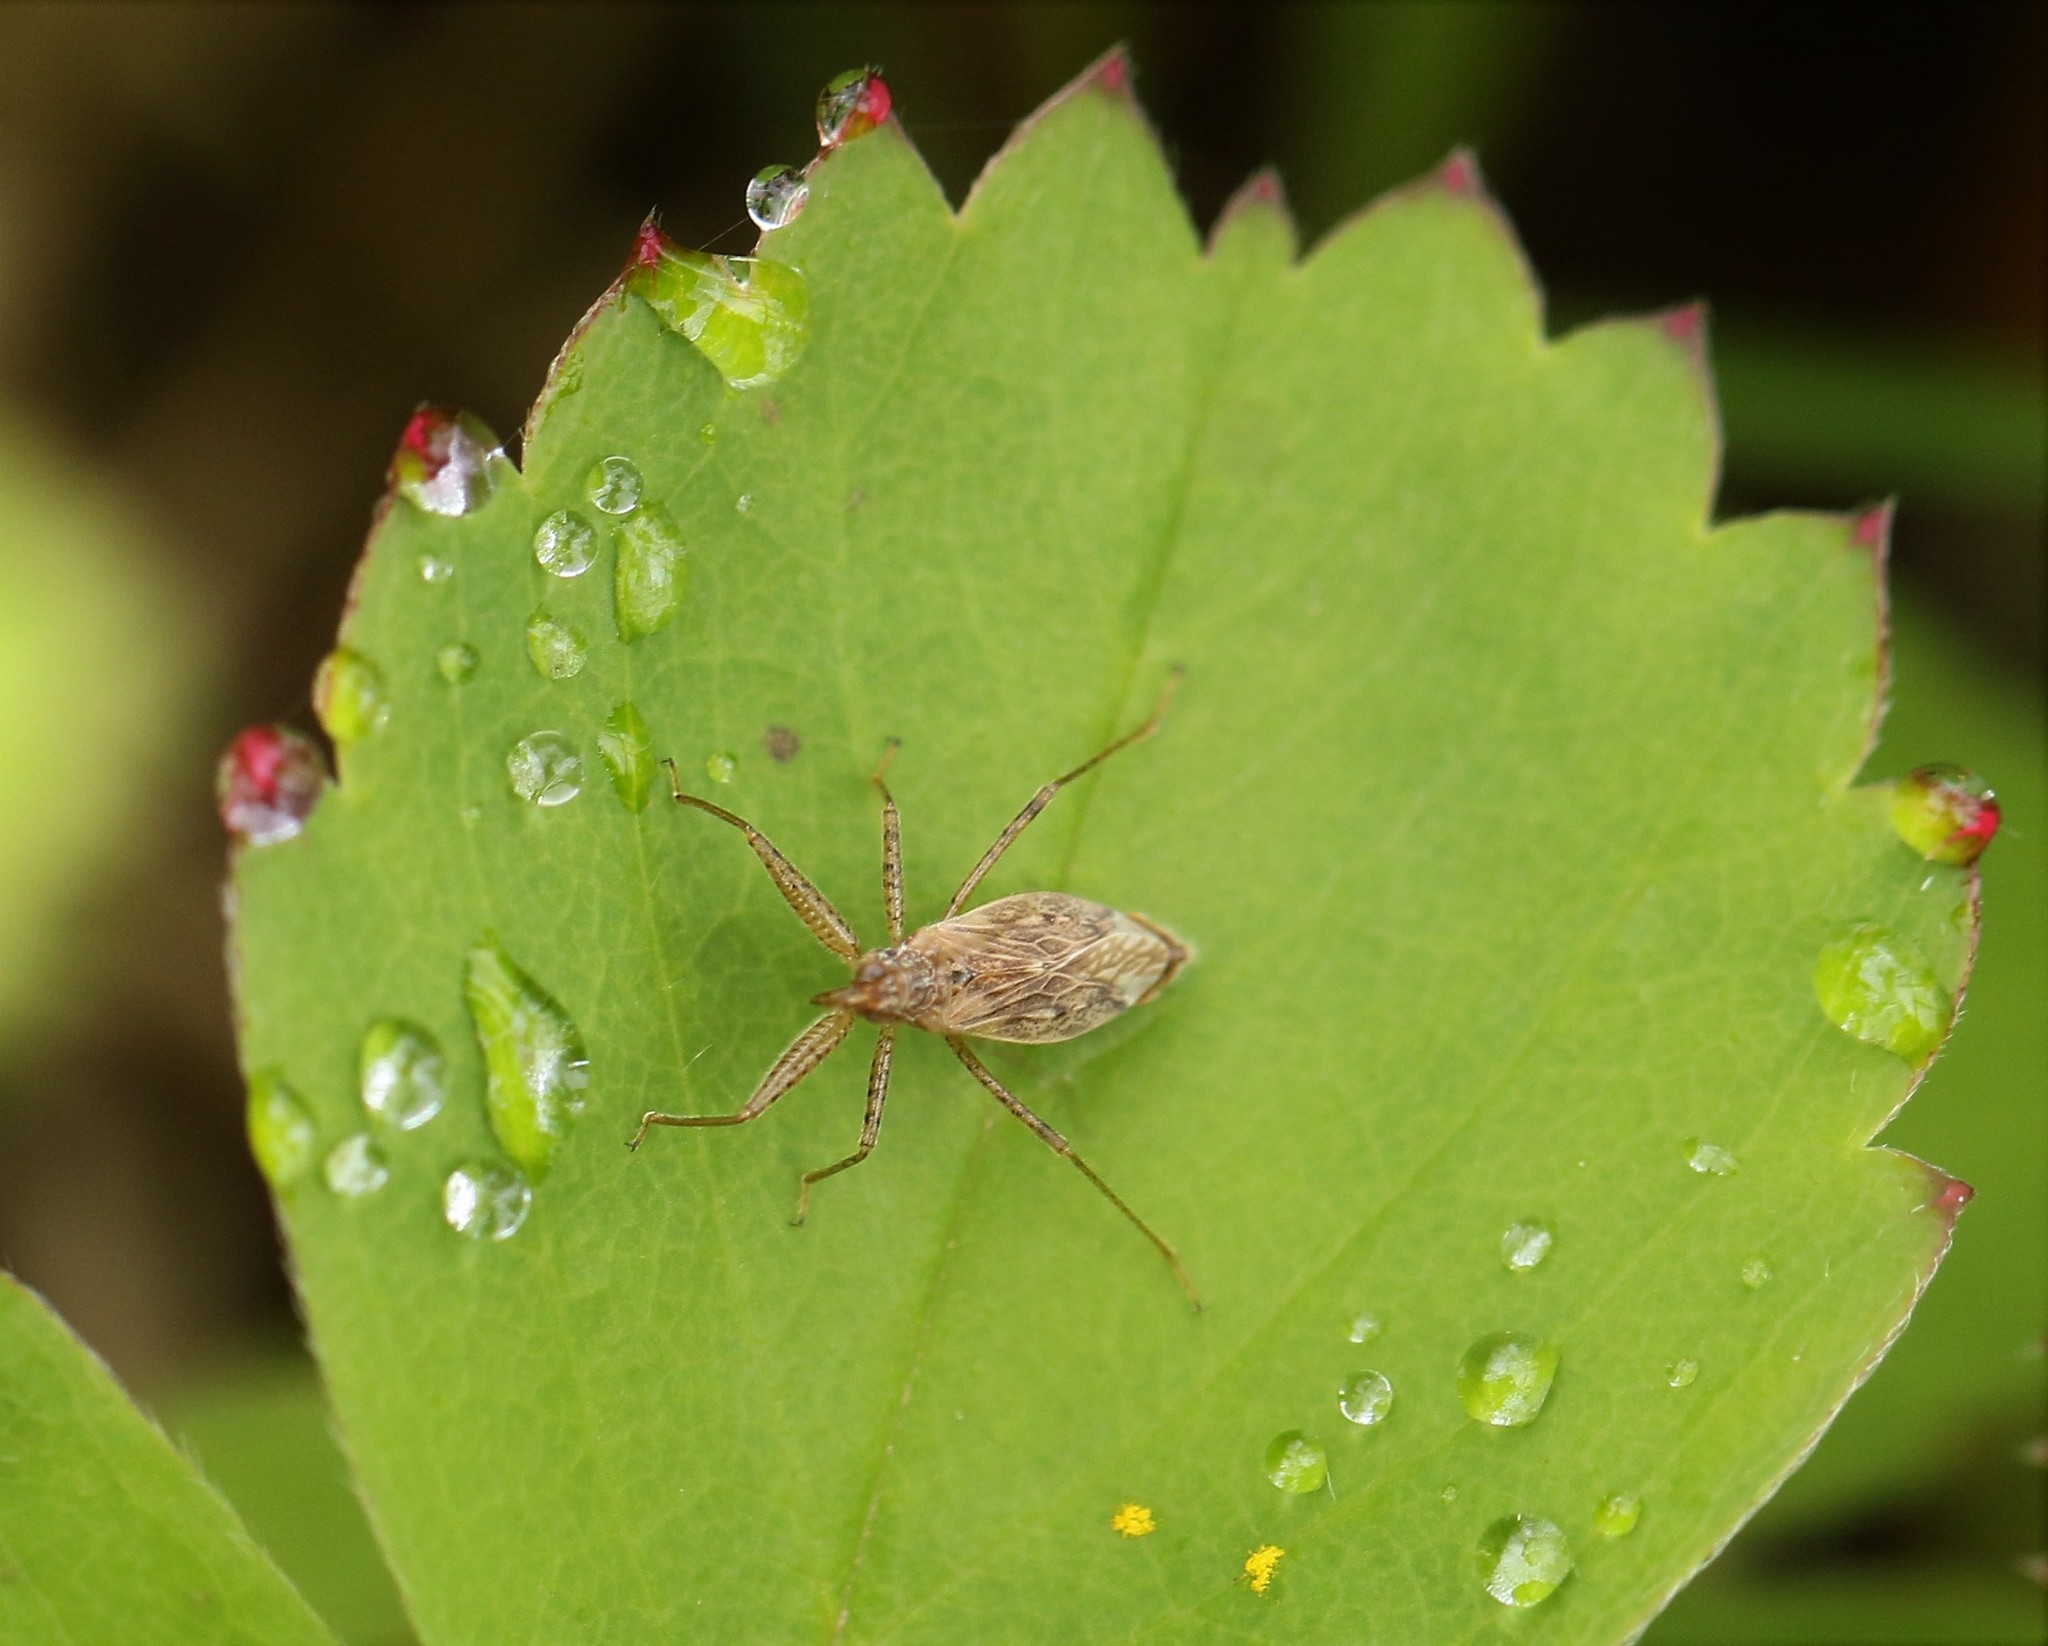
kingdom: Animalia
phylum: Arthropoda
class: Insecta
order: Hemiptera
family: Nabidae
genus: Nabis
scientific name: Nabis roseipennis
